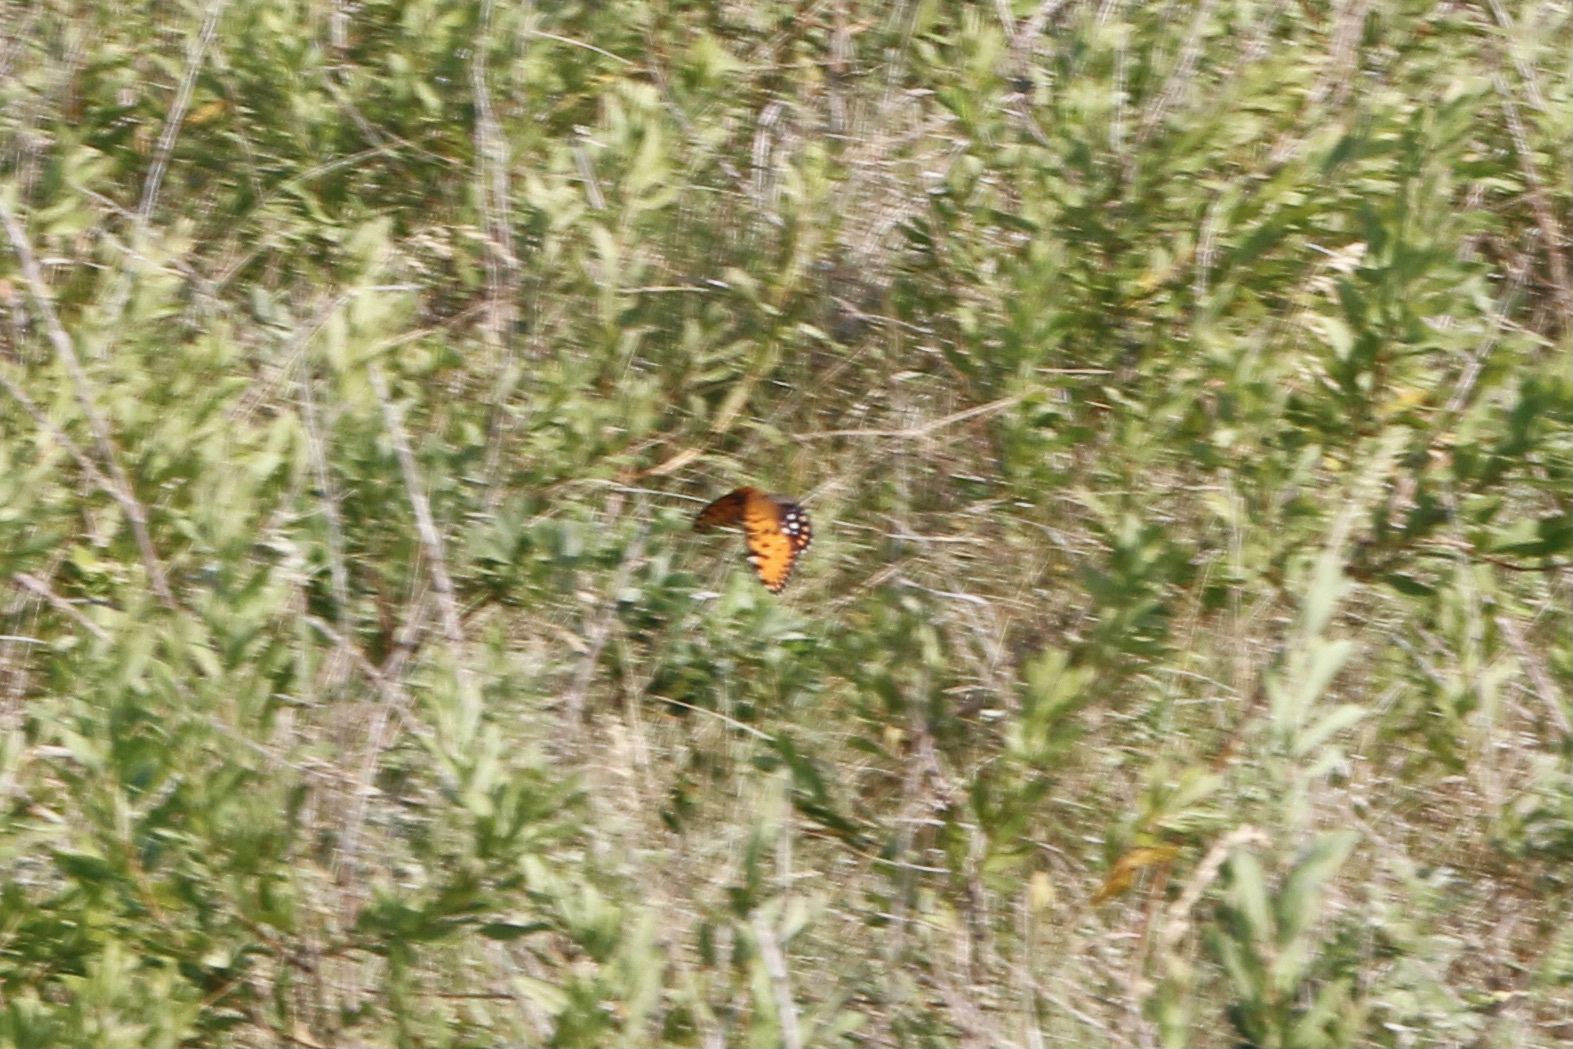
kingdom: Animalia
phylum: Arthropoda
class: Insecta
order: Lepidoptera
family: Nymphalidae
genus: Speyeria
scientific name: Speyeria idalia
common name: Regal fritillary
